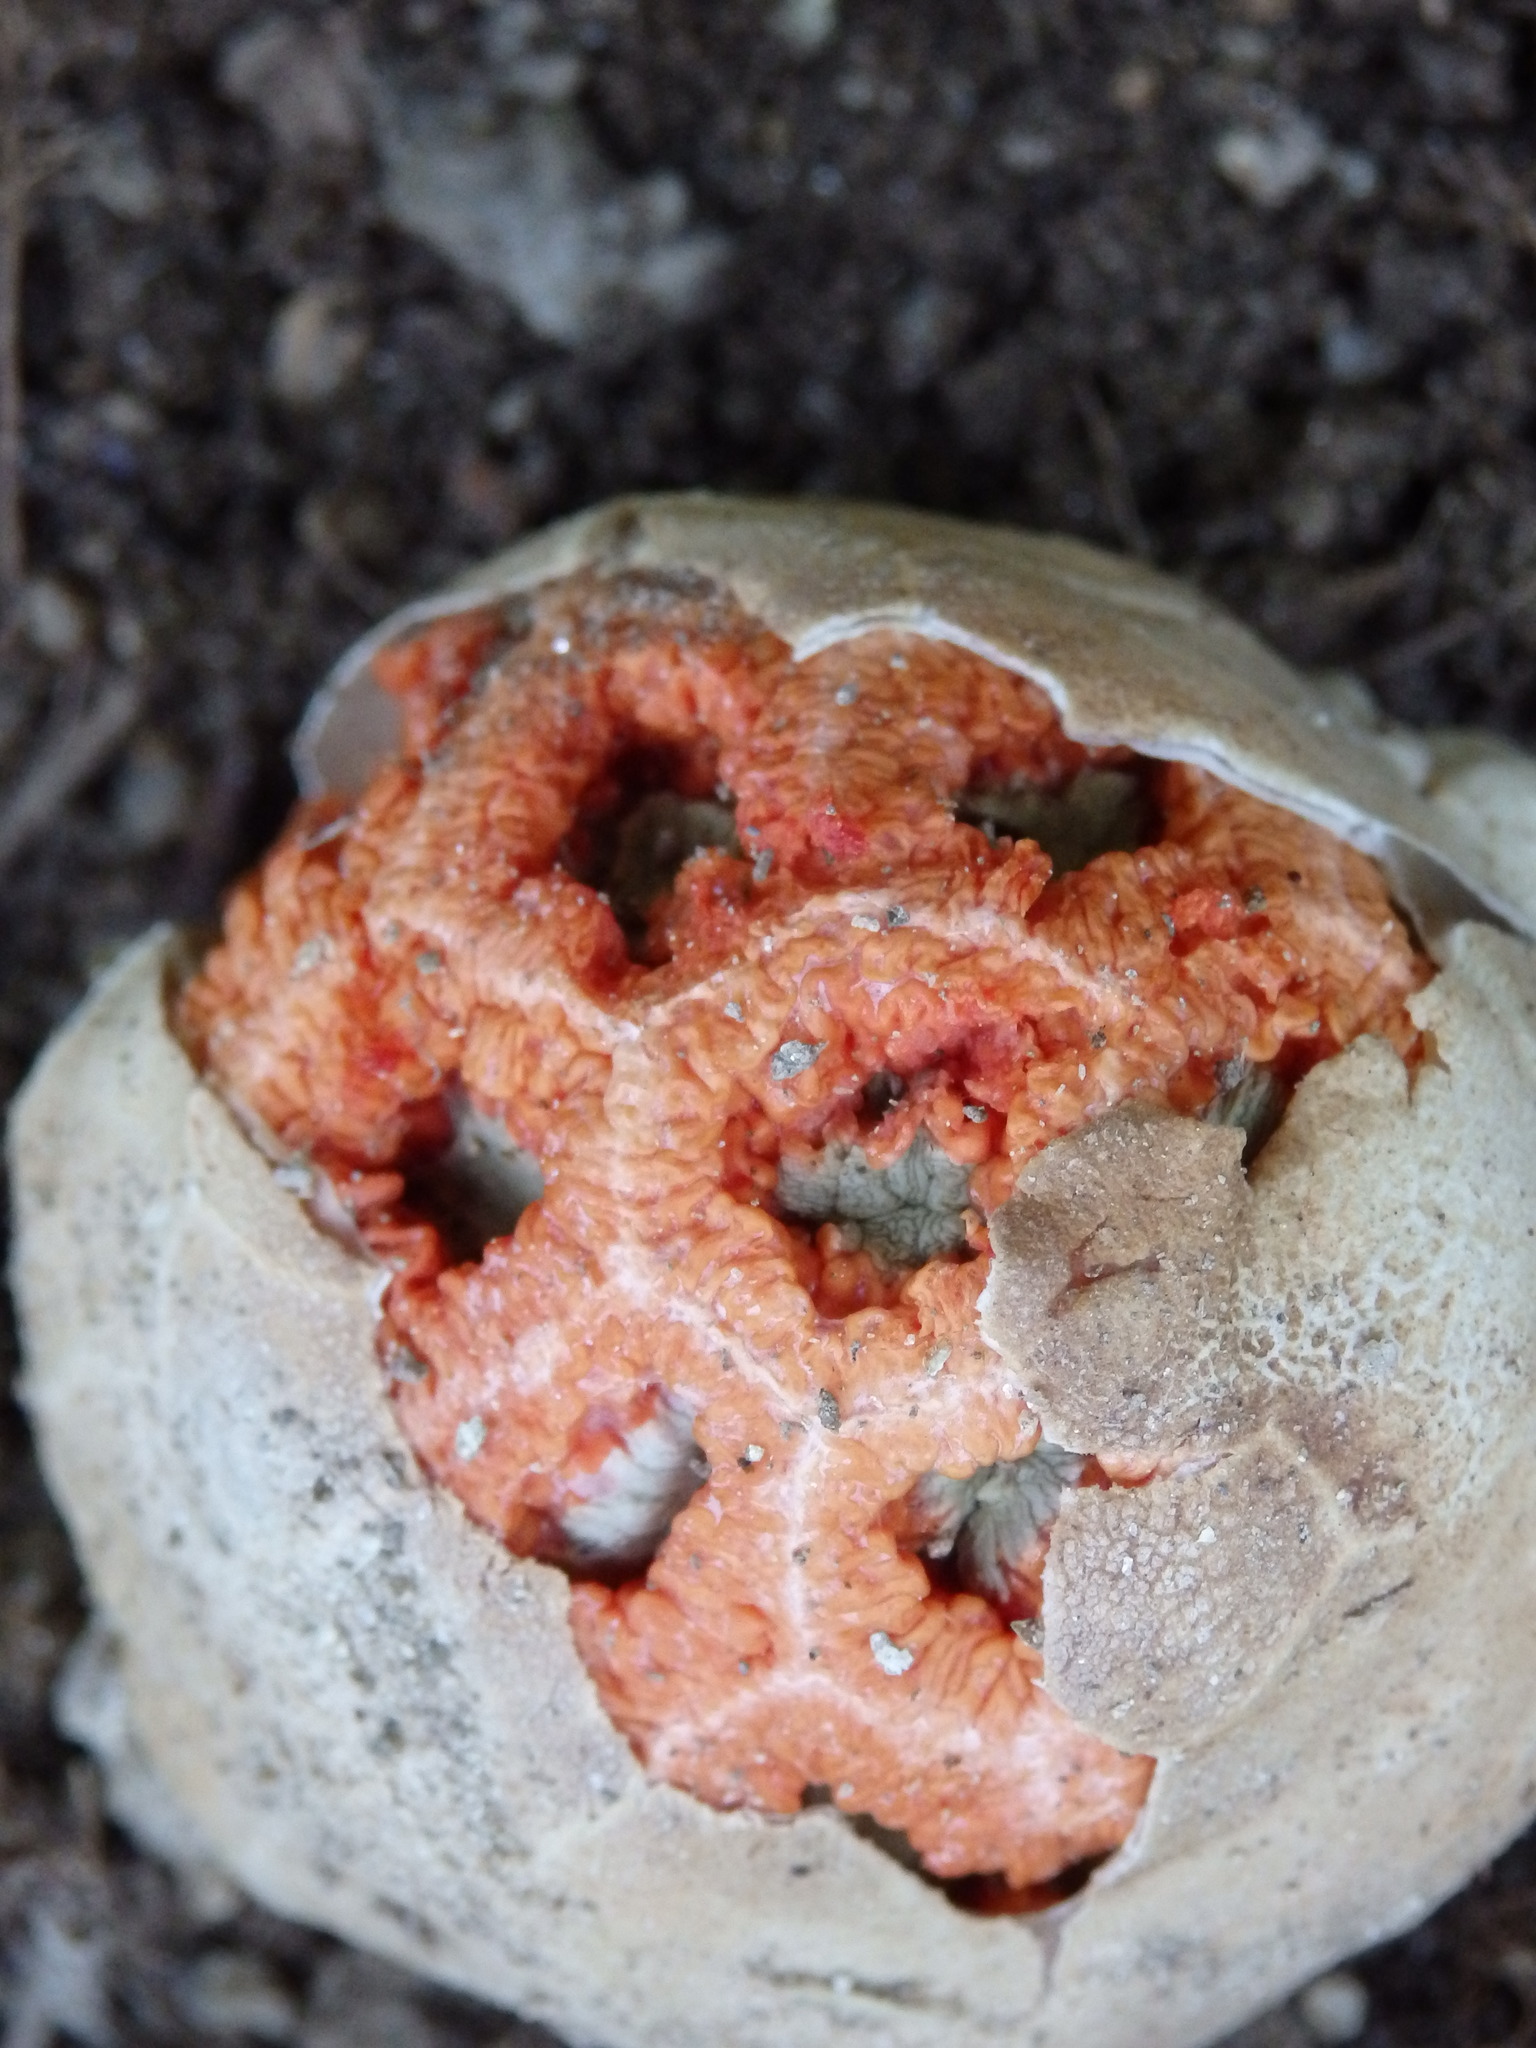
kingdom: Fungi
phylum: Basidiomycota
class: Agaricomycetes
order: Phallales
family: Phallaceae
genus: Clathrus
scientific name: Clathrus ruber
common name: Red cage
